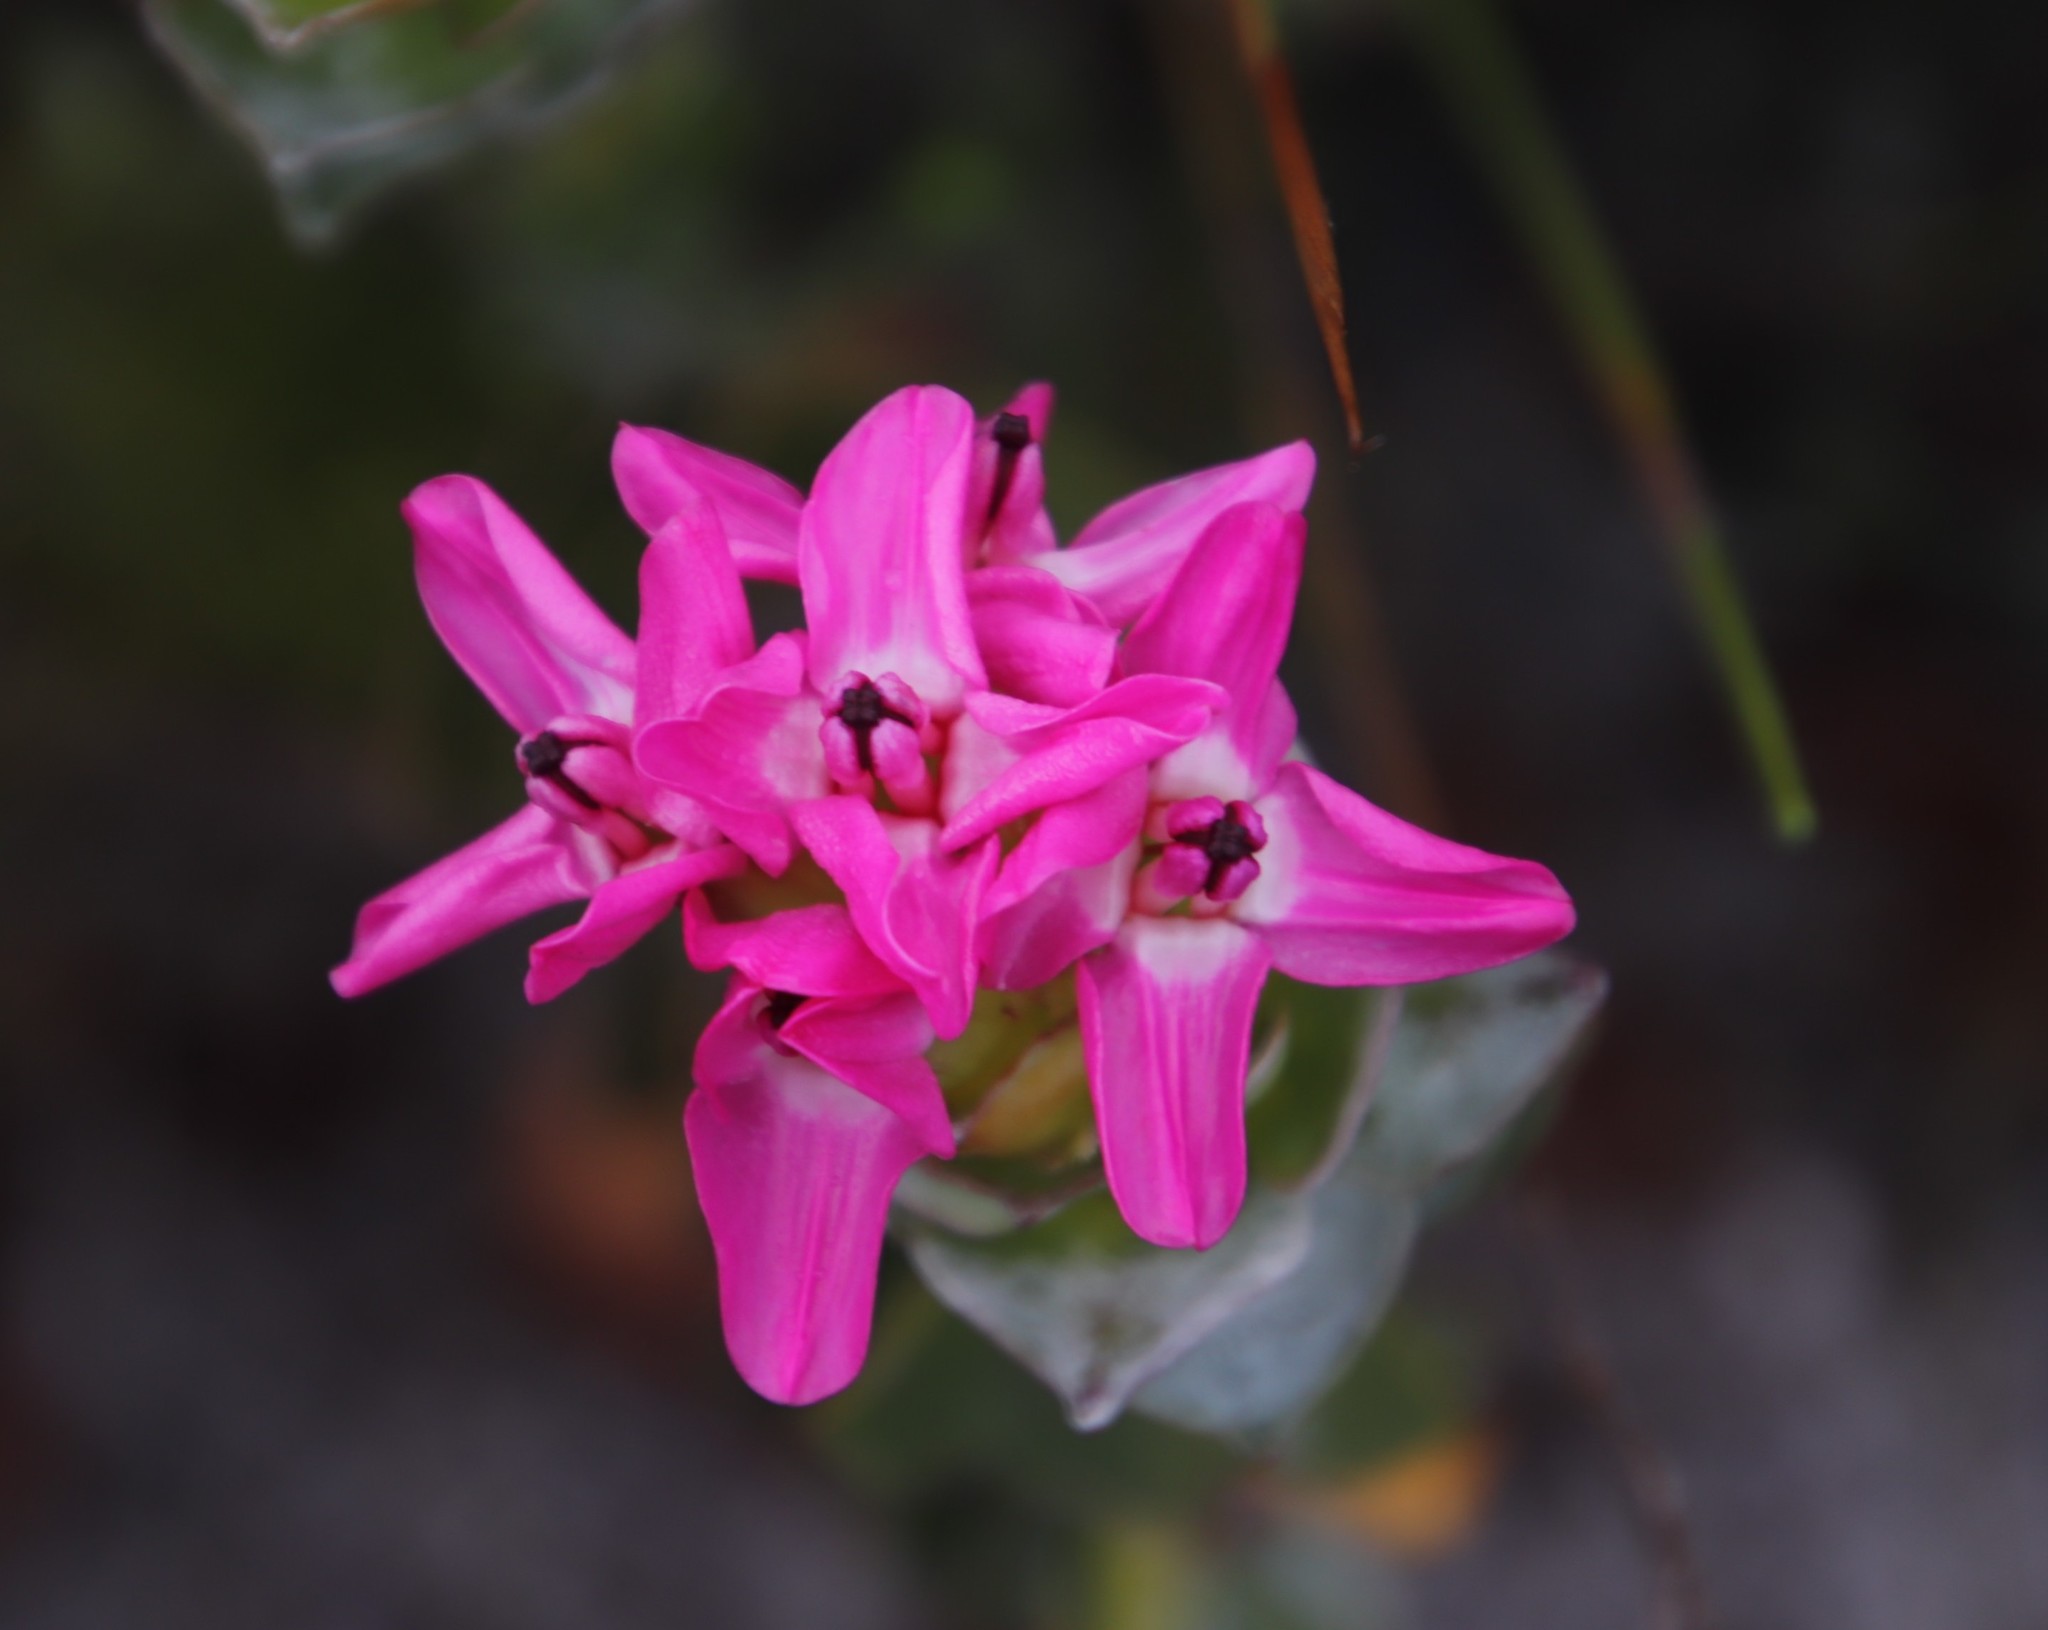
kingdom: Plantae
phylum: Tracheophyta
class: Magnoliopsida
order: Myrtales
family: Penaeaceae
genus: Saltera
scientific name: Saltera sarcocolla
